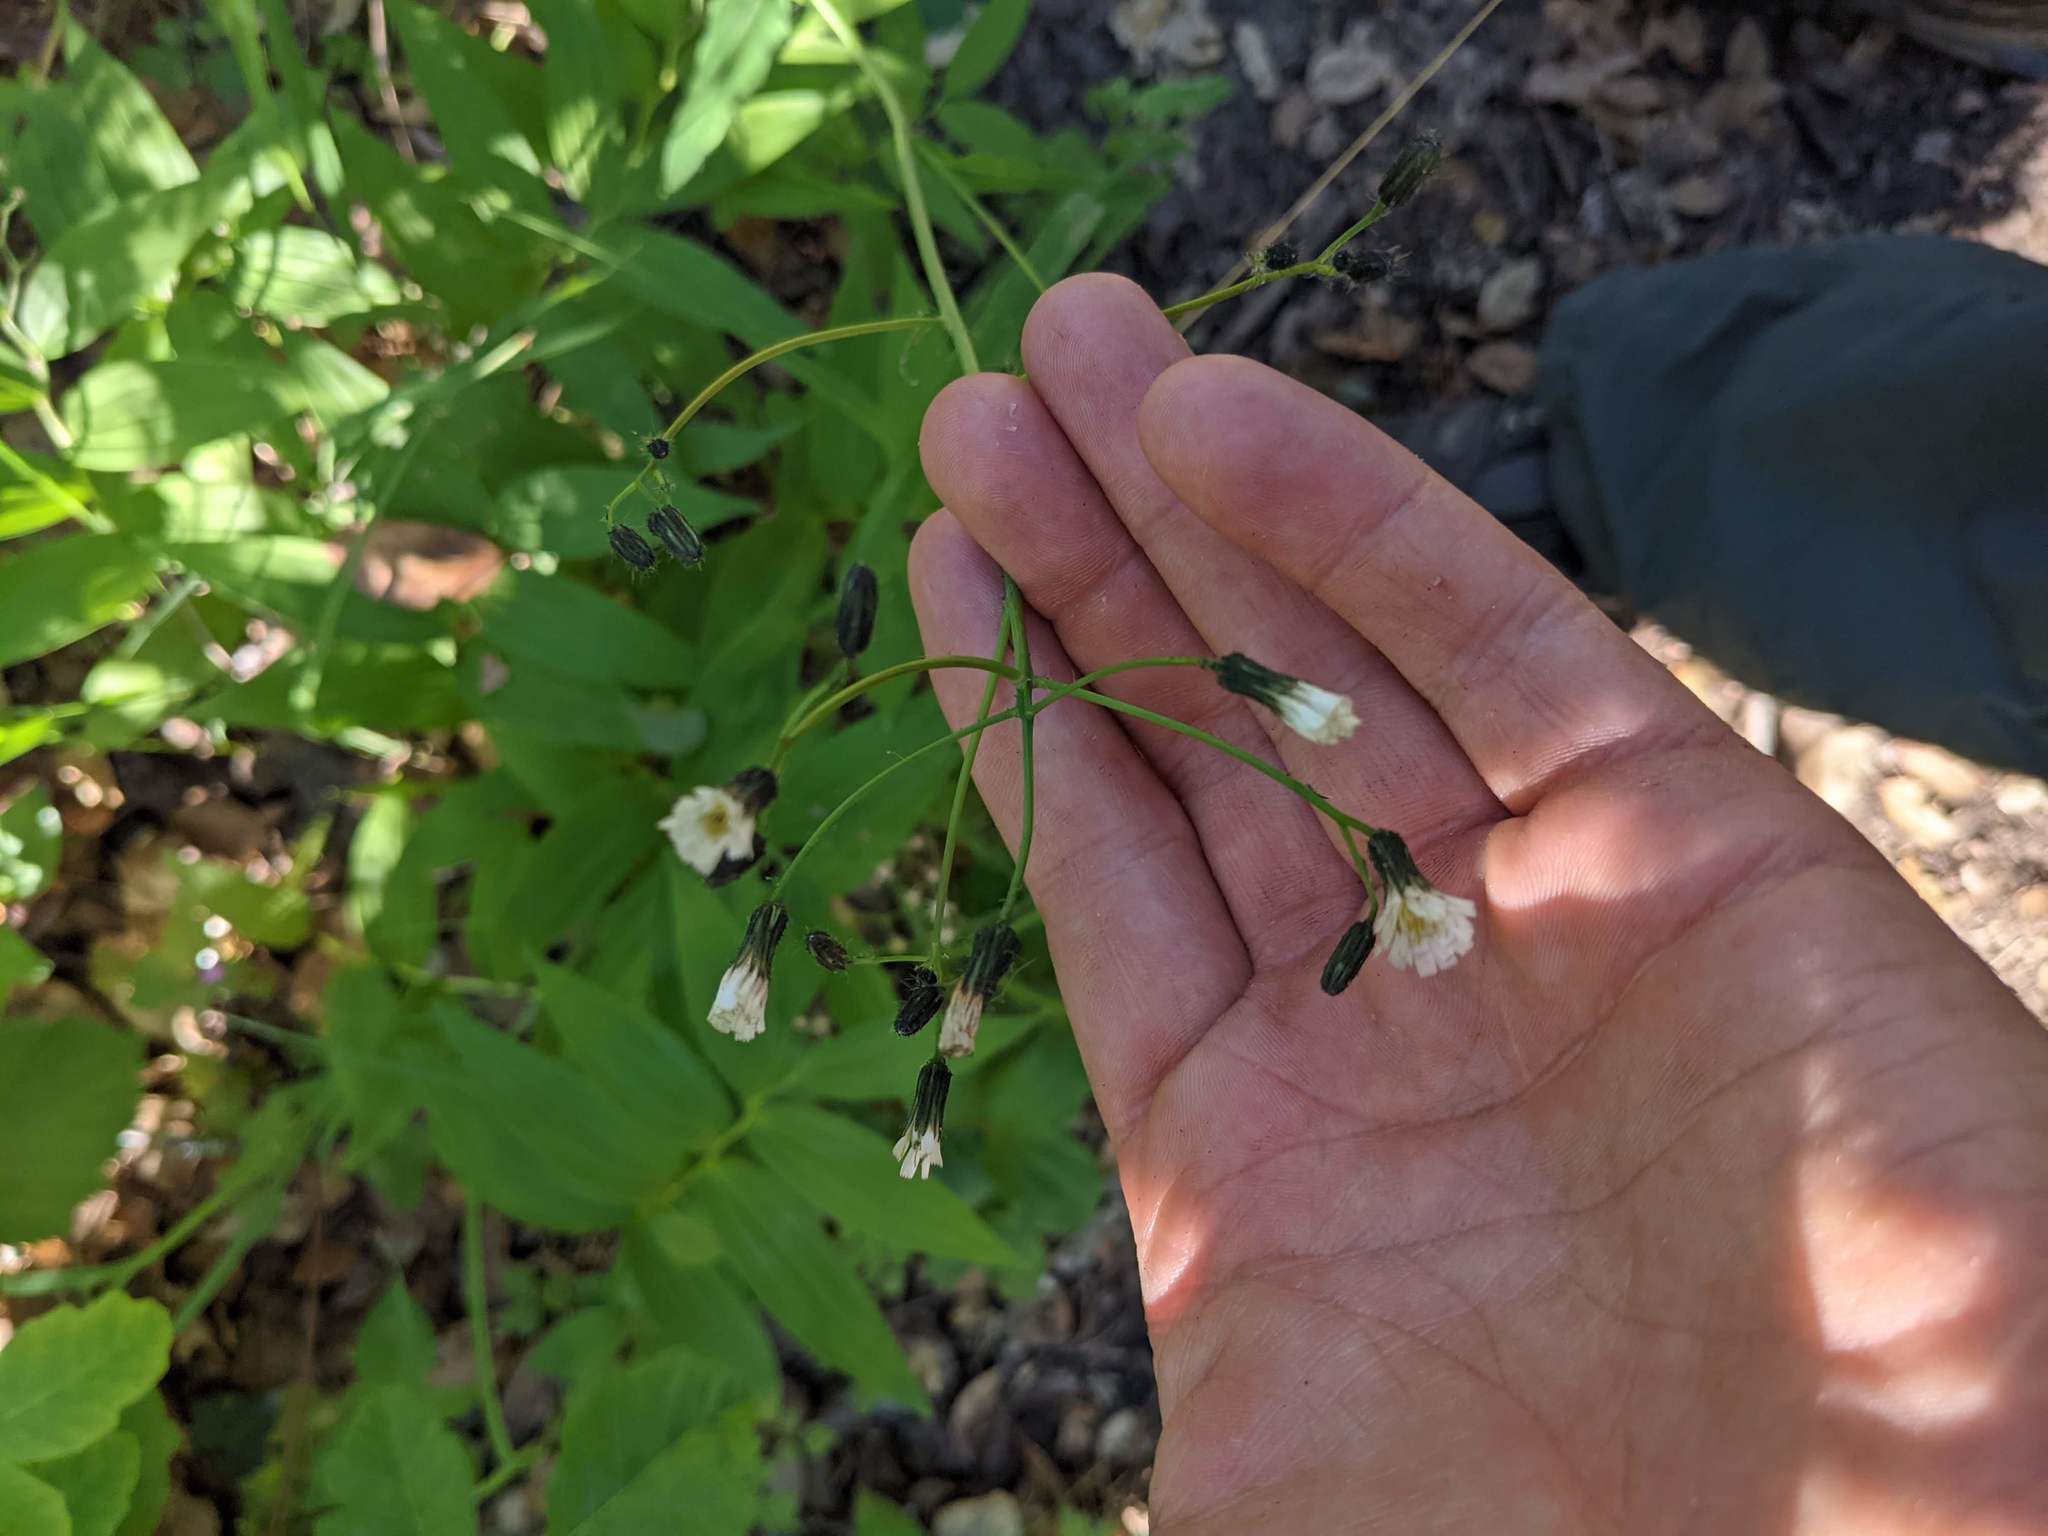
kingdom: Plantae
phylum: Tracheophyta
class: Magnoliopsida
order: Asterales
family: Asteraceae
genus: Hieracium
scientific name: Hieracium albiflorum
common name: White hawkweed
